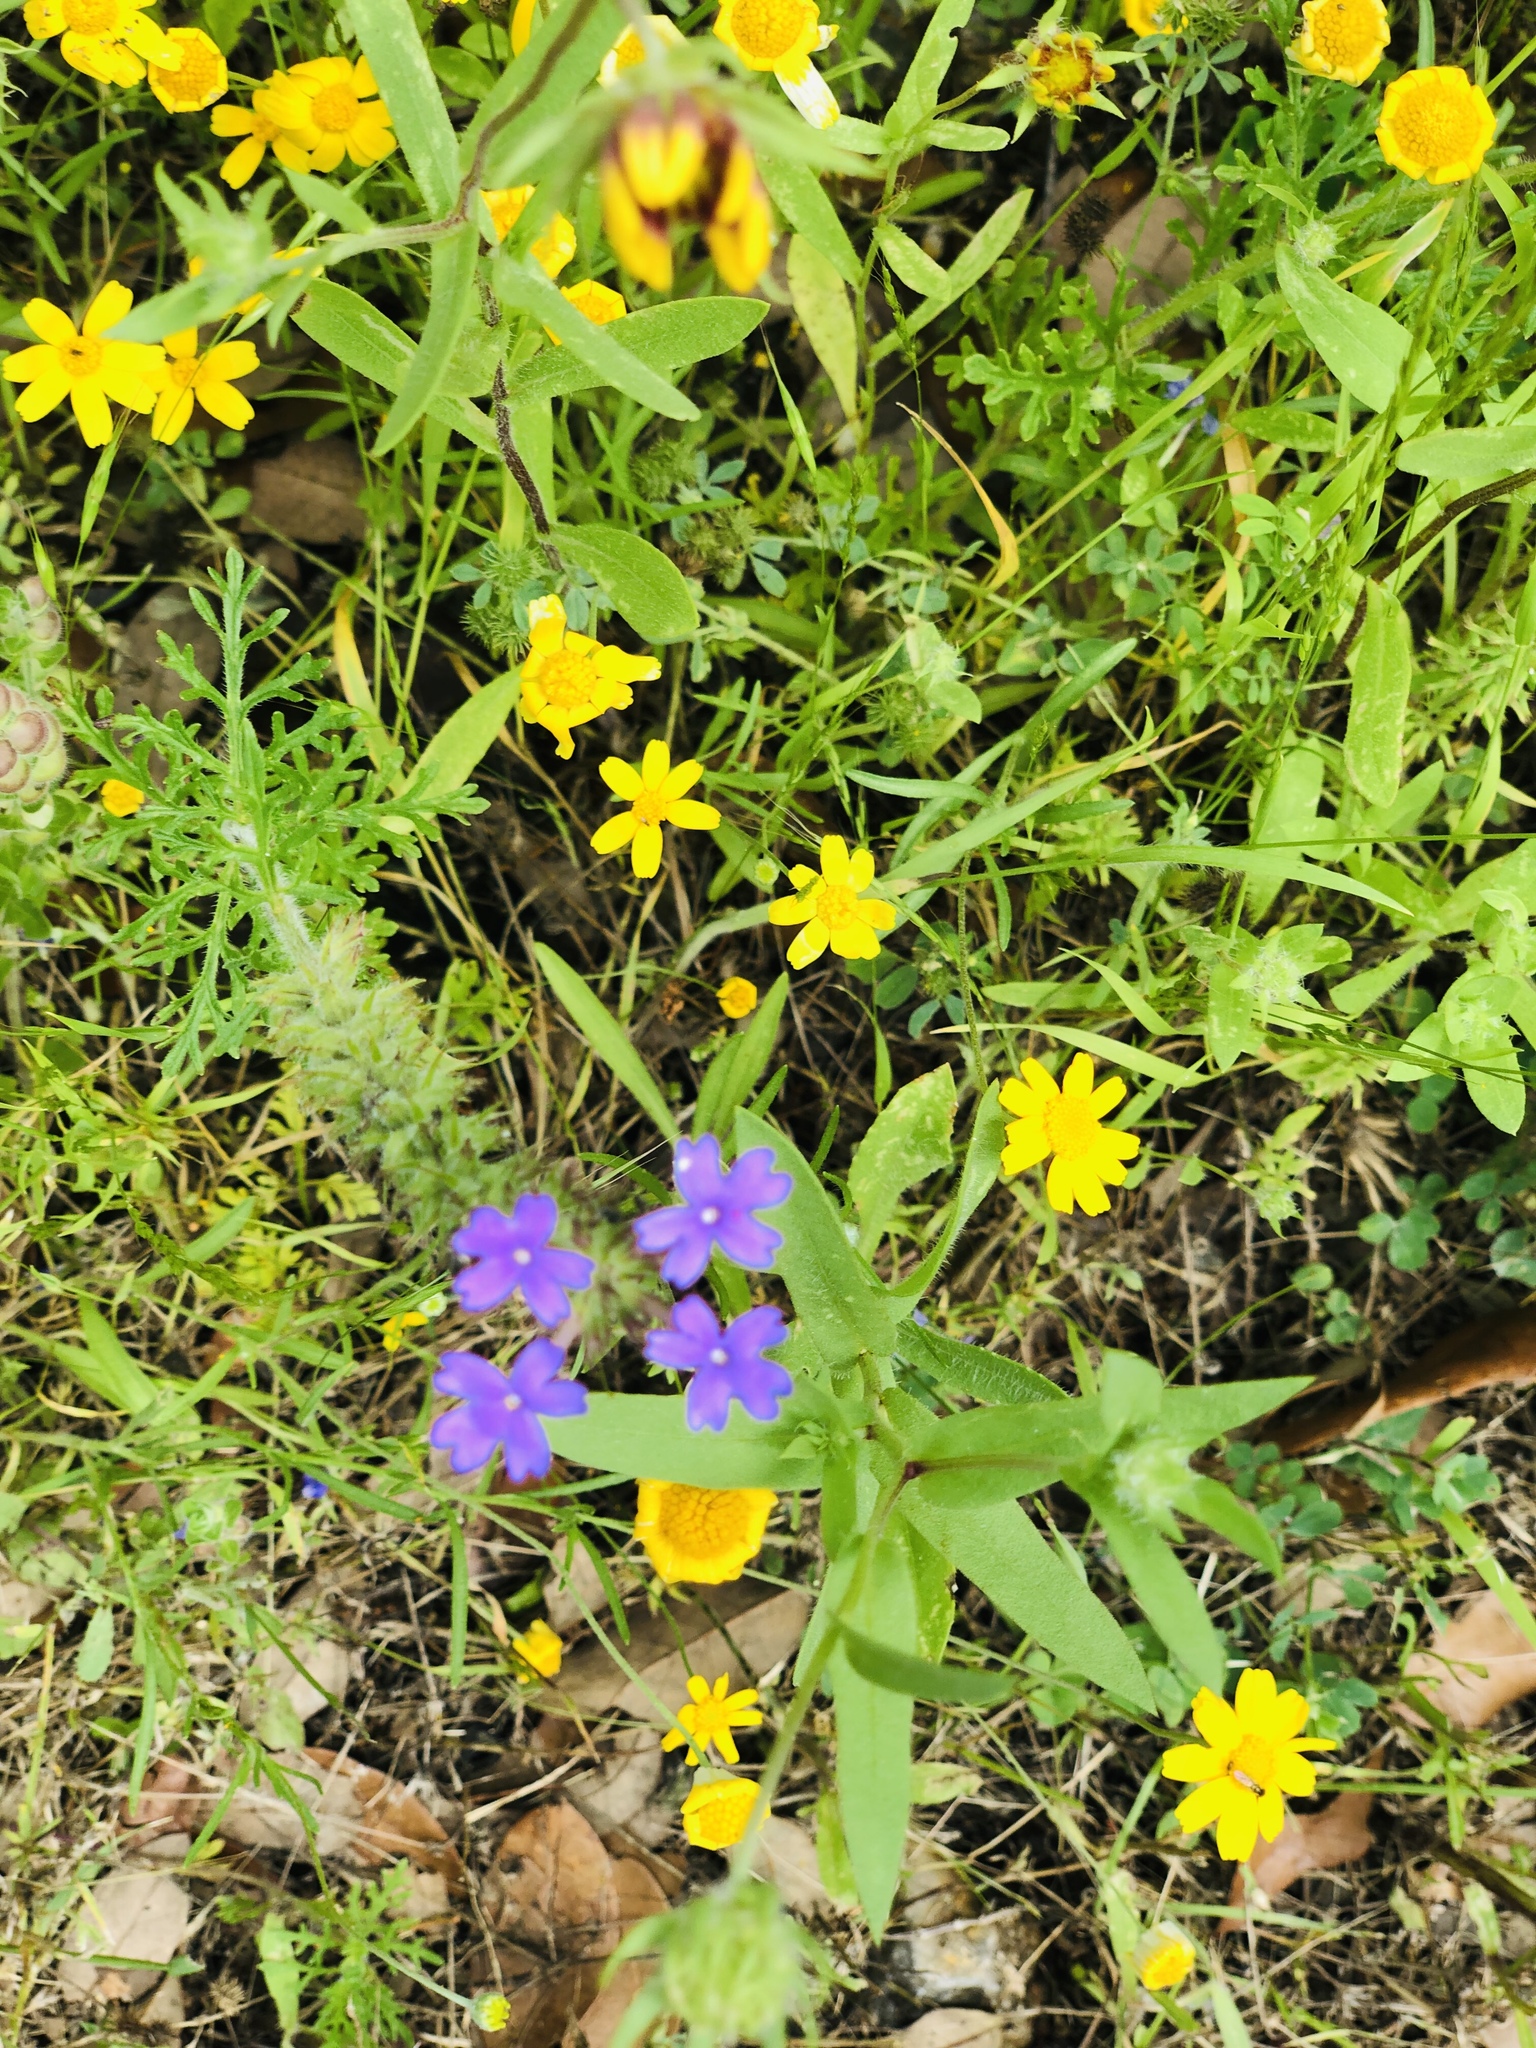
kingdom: Plantae
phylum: Tracheophyta
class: Magnoliopsida
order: Lamiales
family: Verbenaceae
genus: Verbena
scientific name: Verbena bipinnatifida
